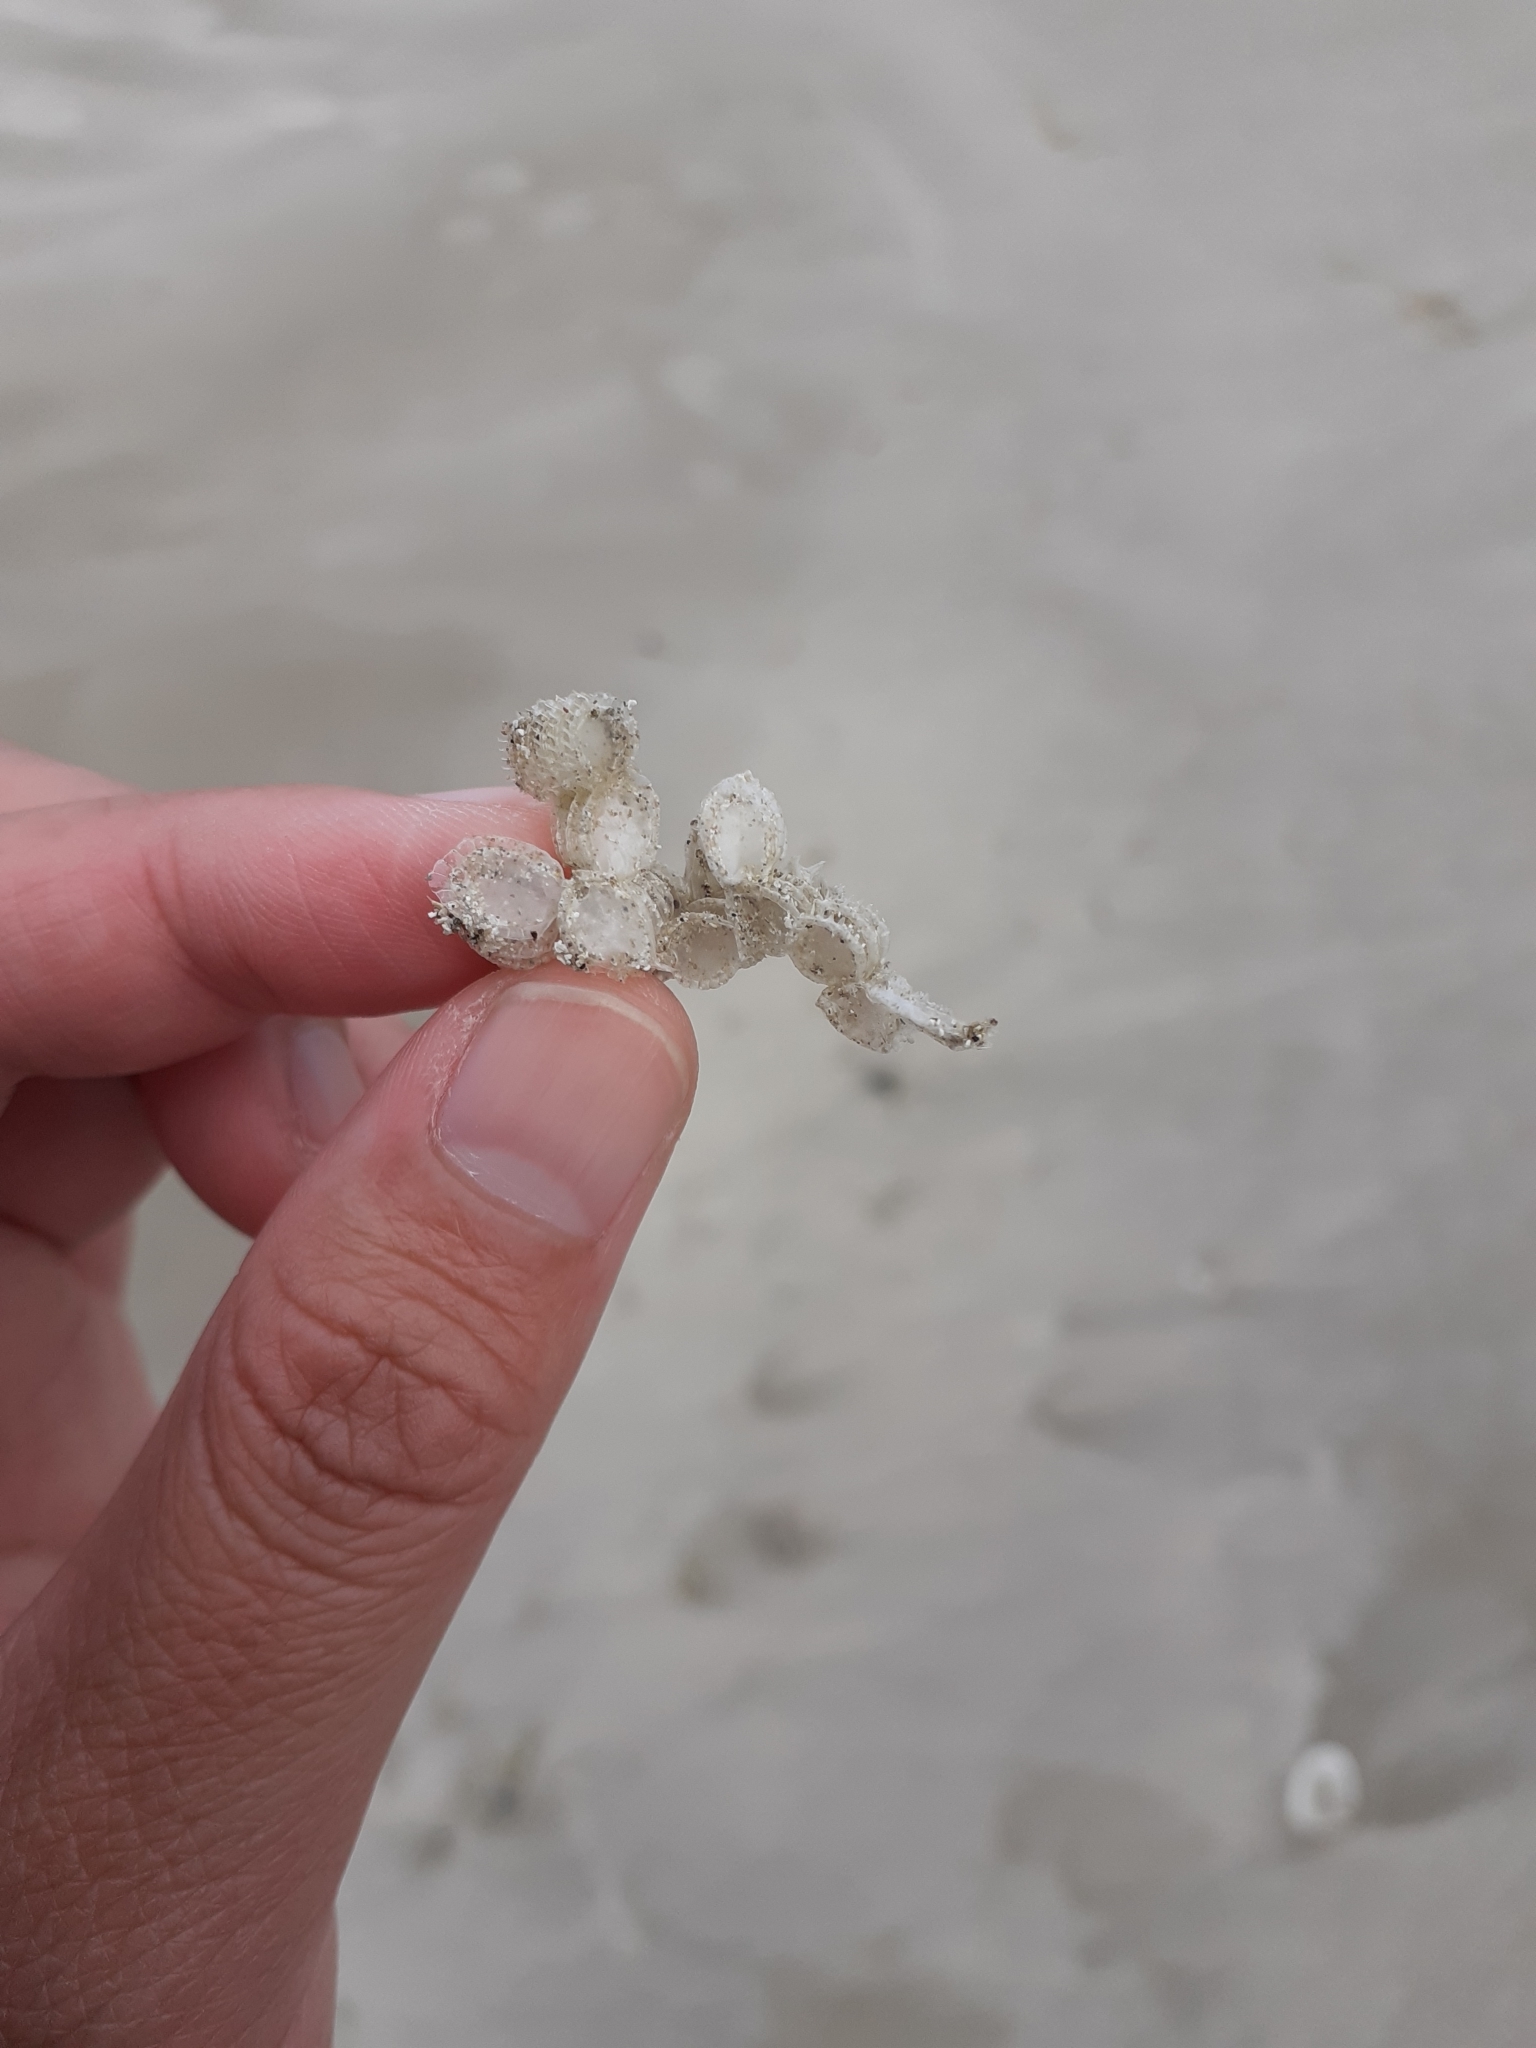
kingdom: Animalia
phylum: Mollusca
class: Gastropoda
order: Neogastropoda
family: Muricidae
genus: Poirieria
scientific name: Poirieria zelandica
